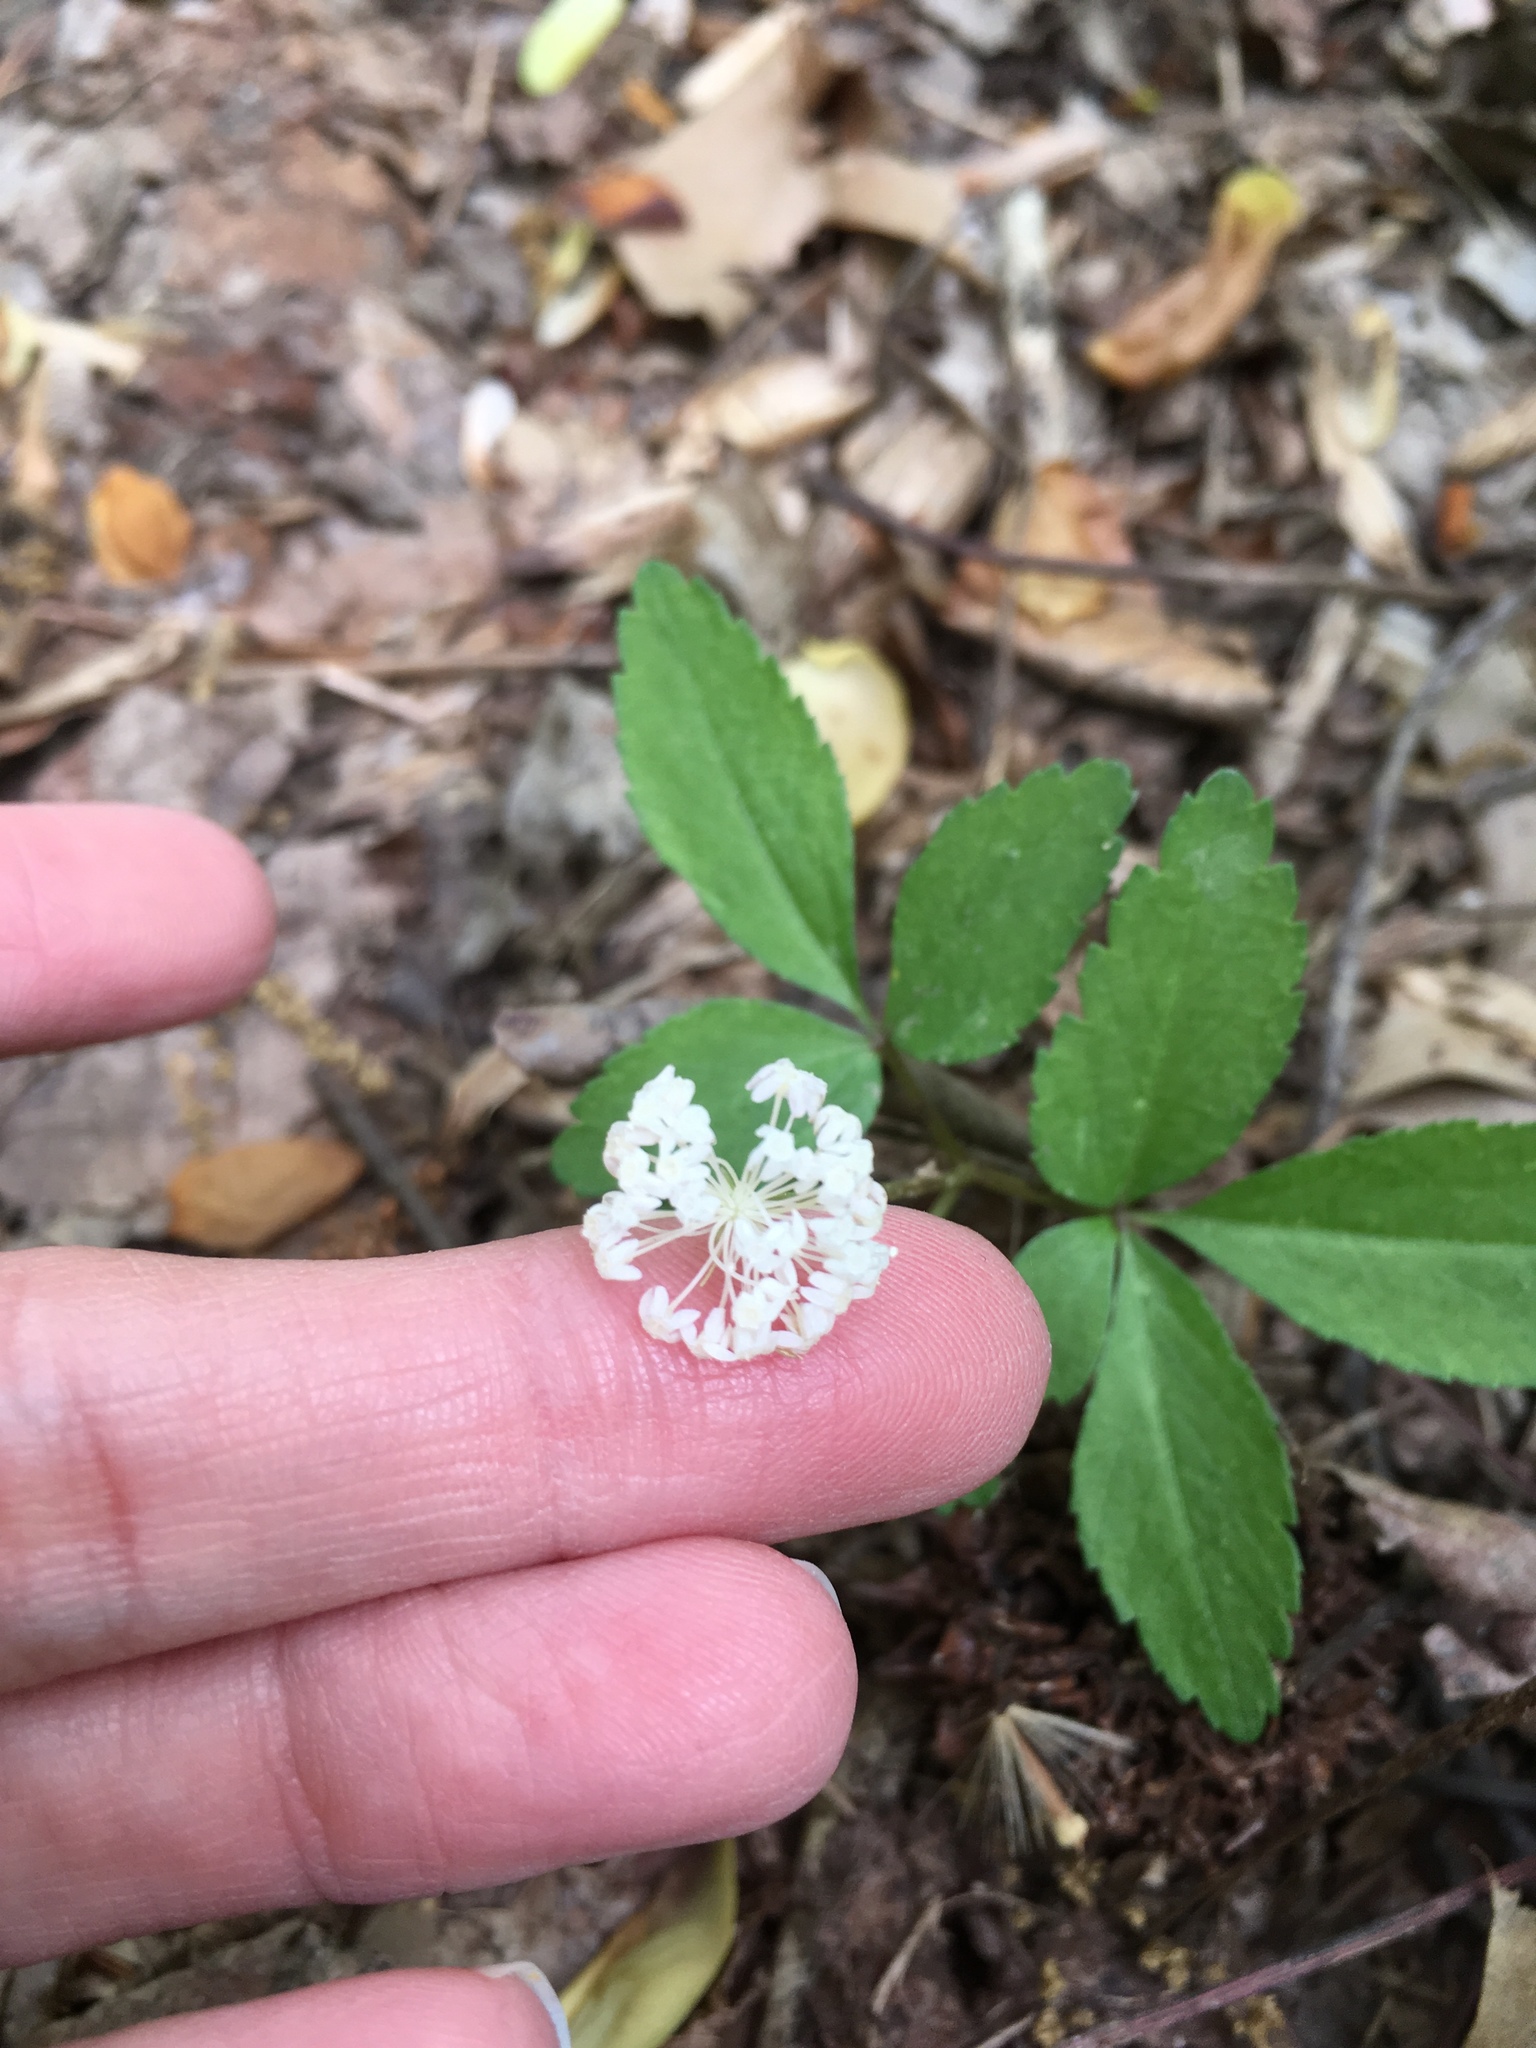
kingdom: Plantae
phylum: Tracheophyta
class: Magnoliopsida
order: Apiales
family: Araliaceae
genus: Panax
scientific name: Panax trifolius
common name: Dwarf ginseng
